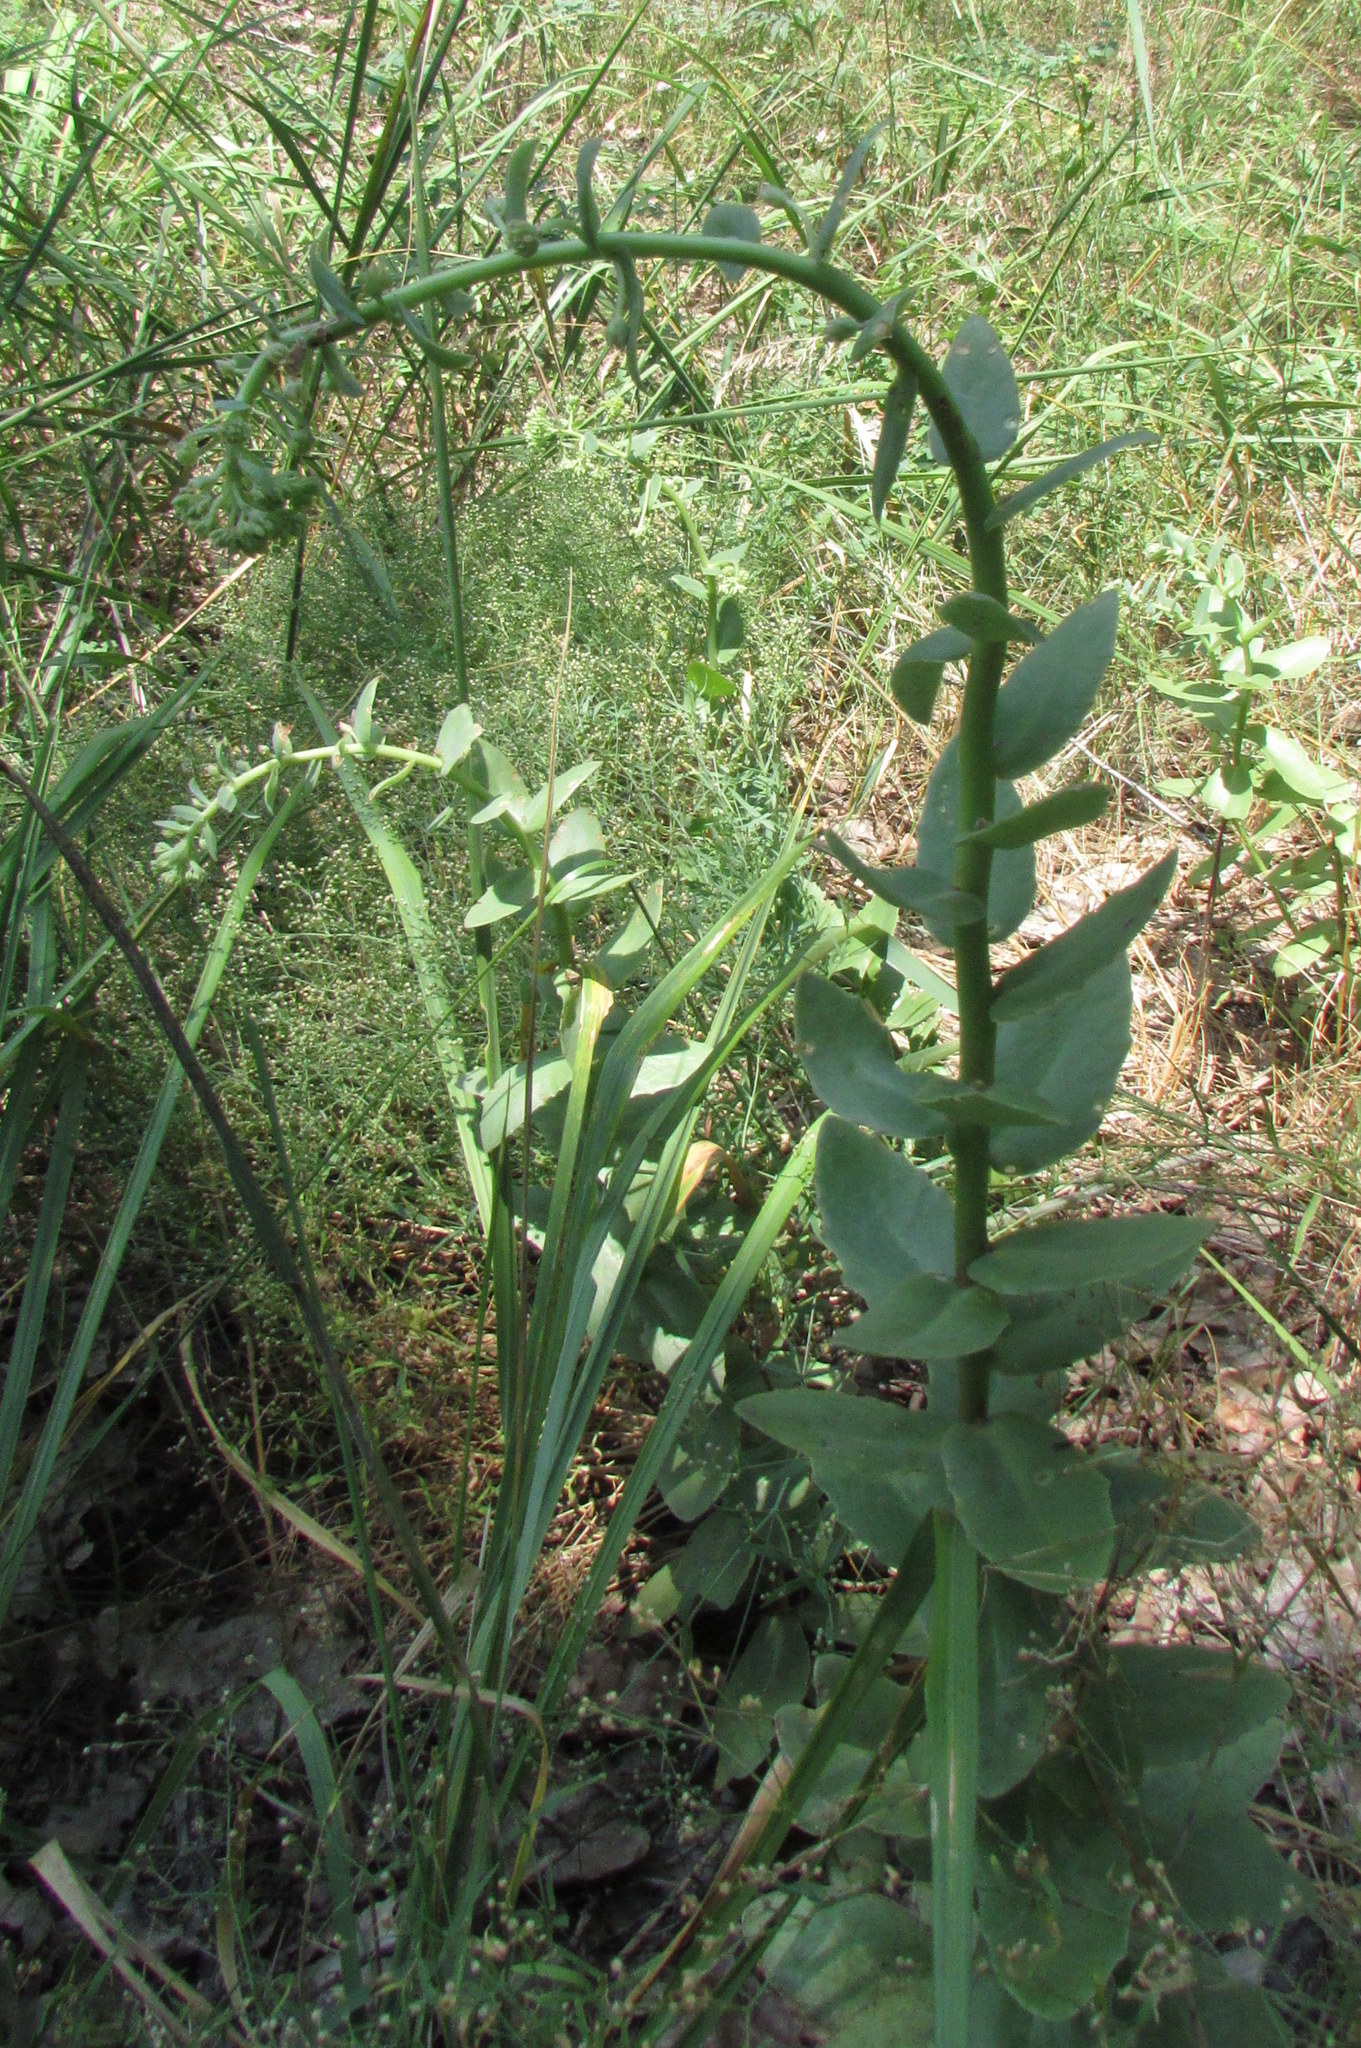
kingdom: Plantae
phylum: Tracheophyta
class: Magnoliopsida
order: Saxifragales
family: Crassulaceae
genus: Hylotelephium
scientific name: Hylotelephium maximum
